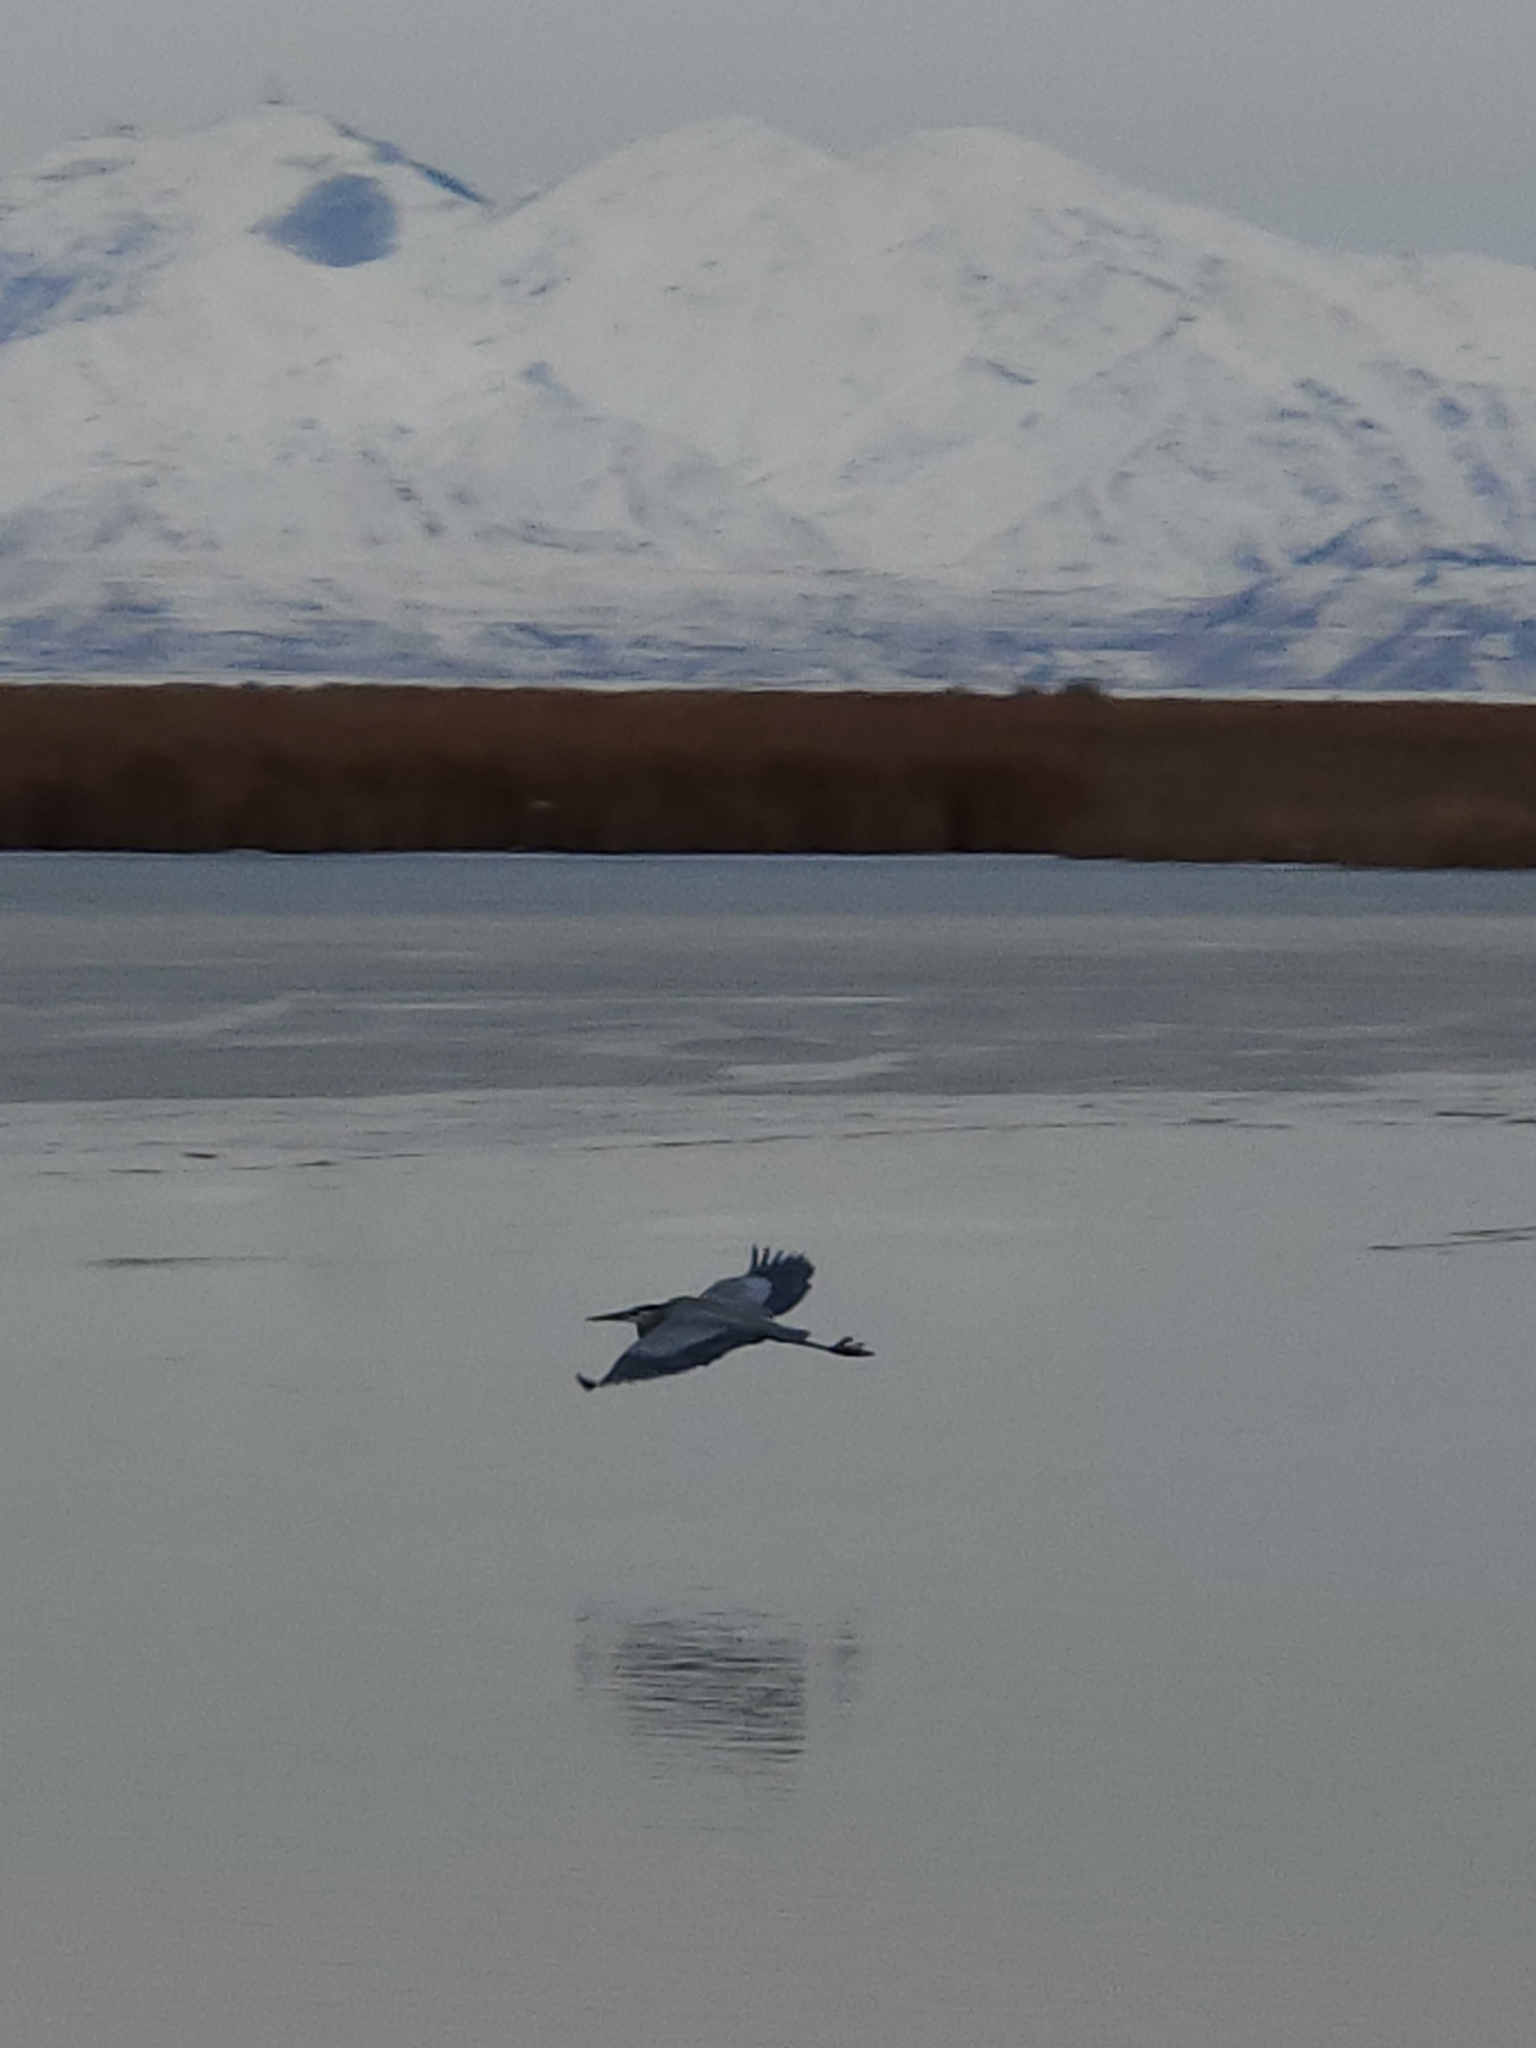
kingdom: Animalia
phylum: Chordata
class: Aves
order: Pelecaniformes
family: Ardeidae
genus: Ardea
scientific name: Ardea herodias
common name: Great blue heron
